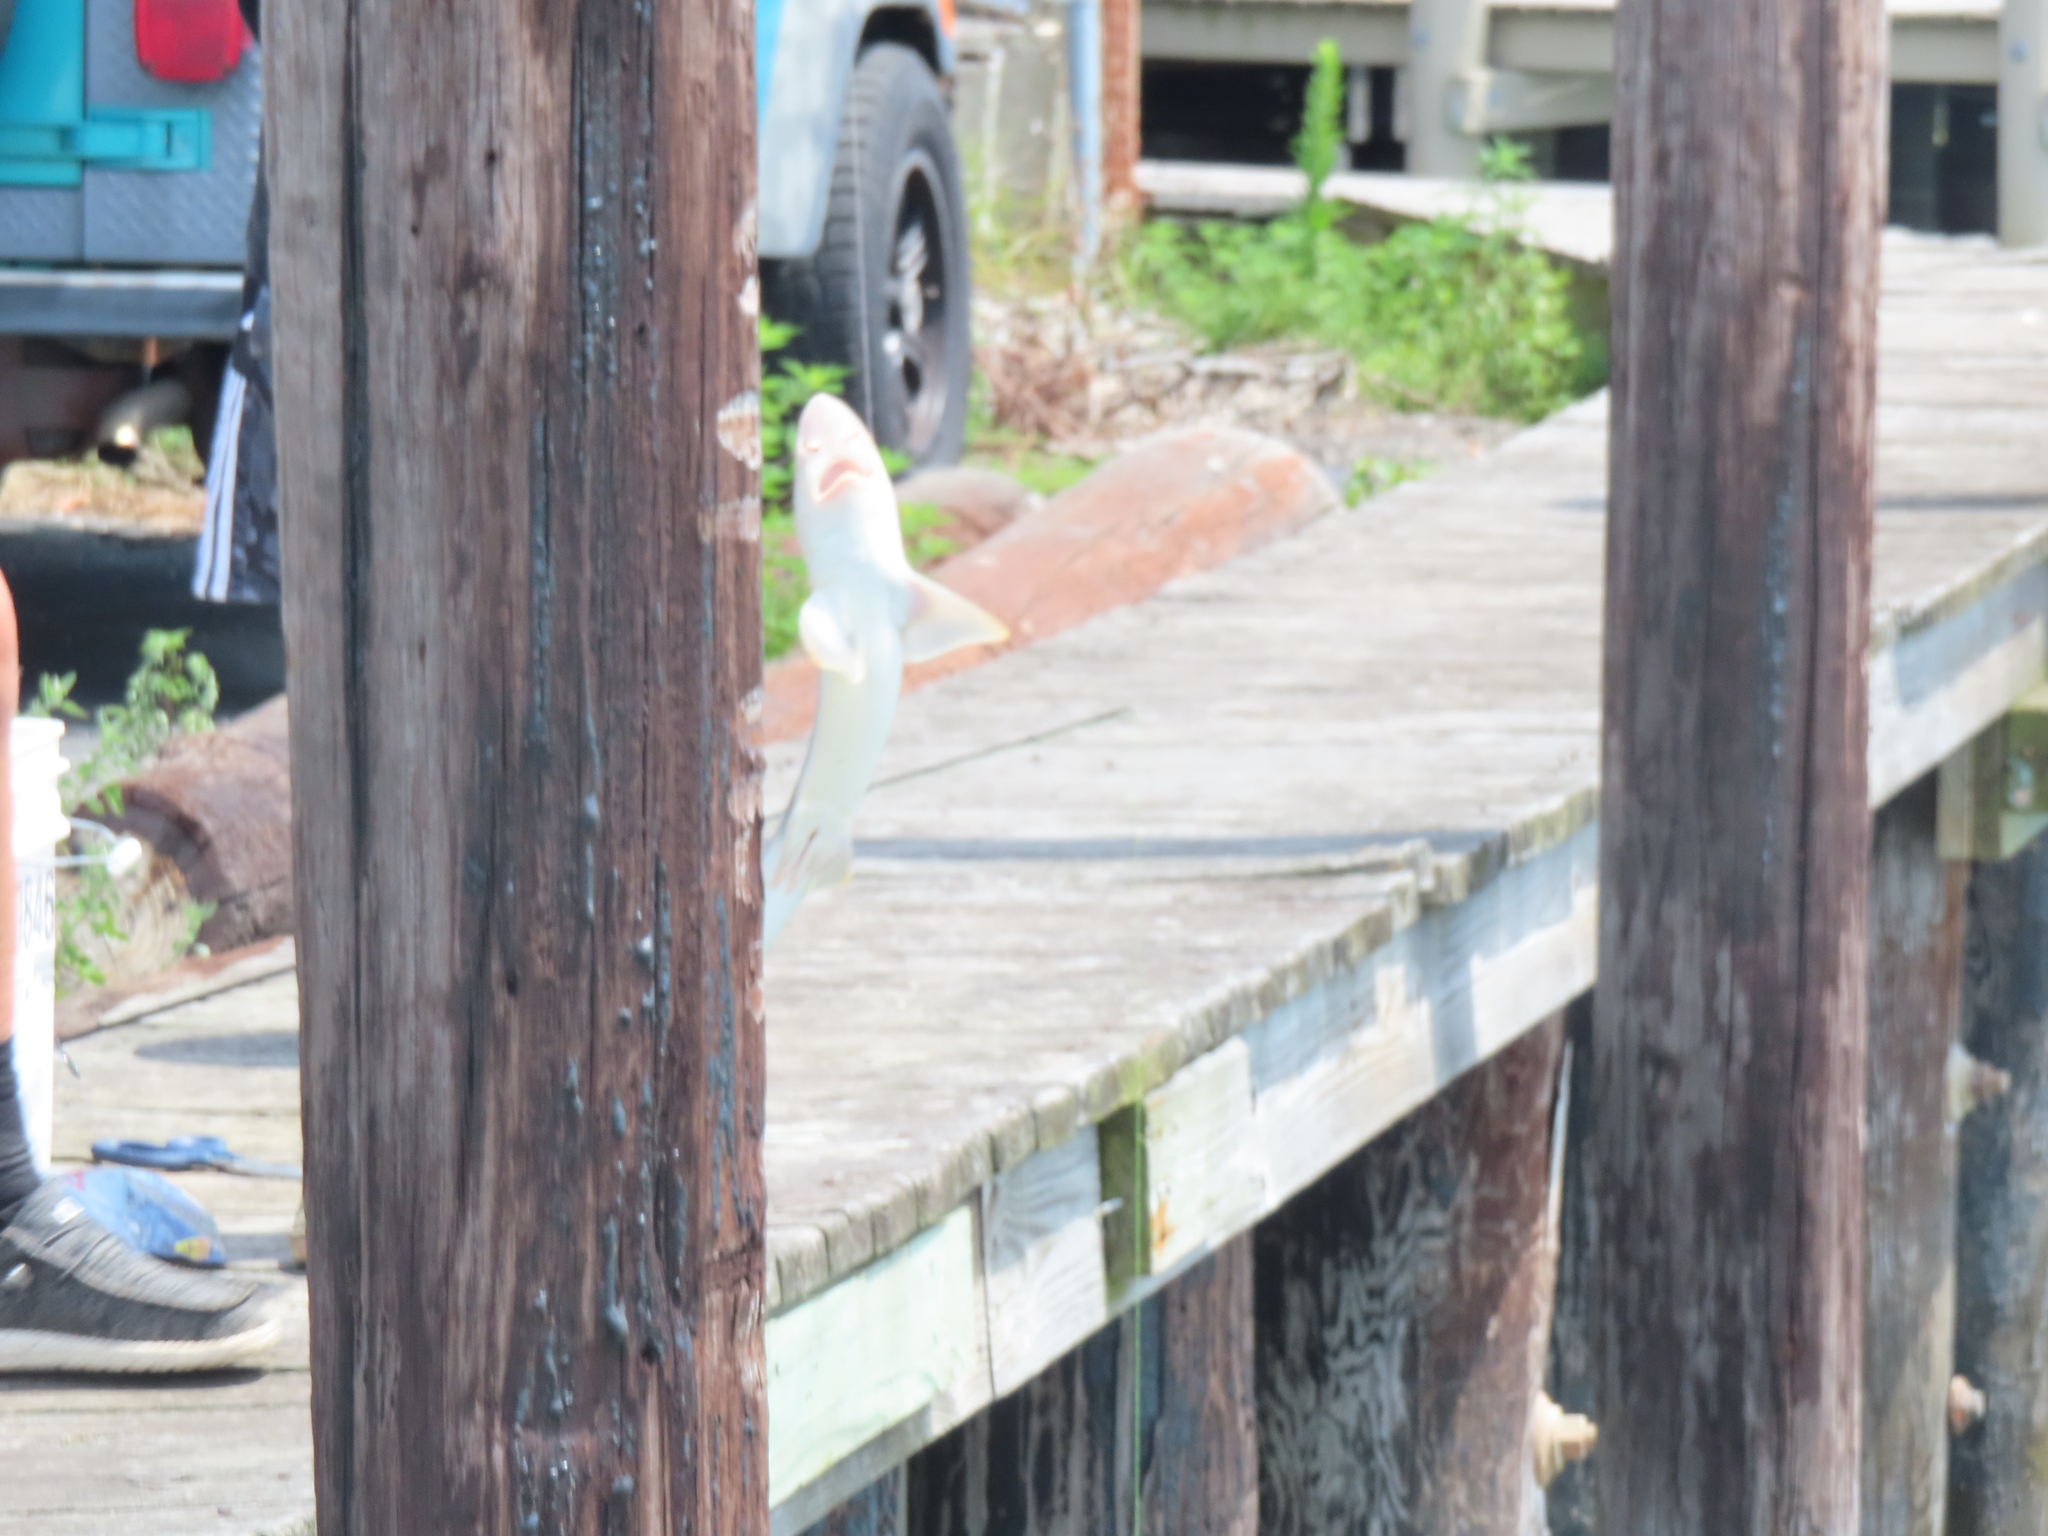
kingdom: Animalia
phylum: Chordata
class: Elasmobranchii
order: Carcharhiniformes
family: Triakidae
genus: Mustelus
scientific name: Mustelus canis
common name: Smooth dogfish
